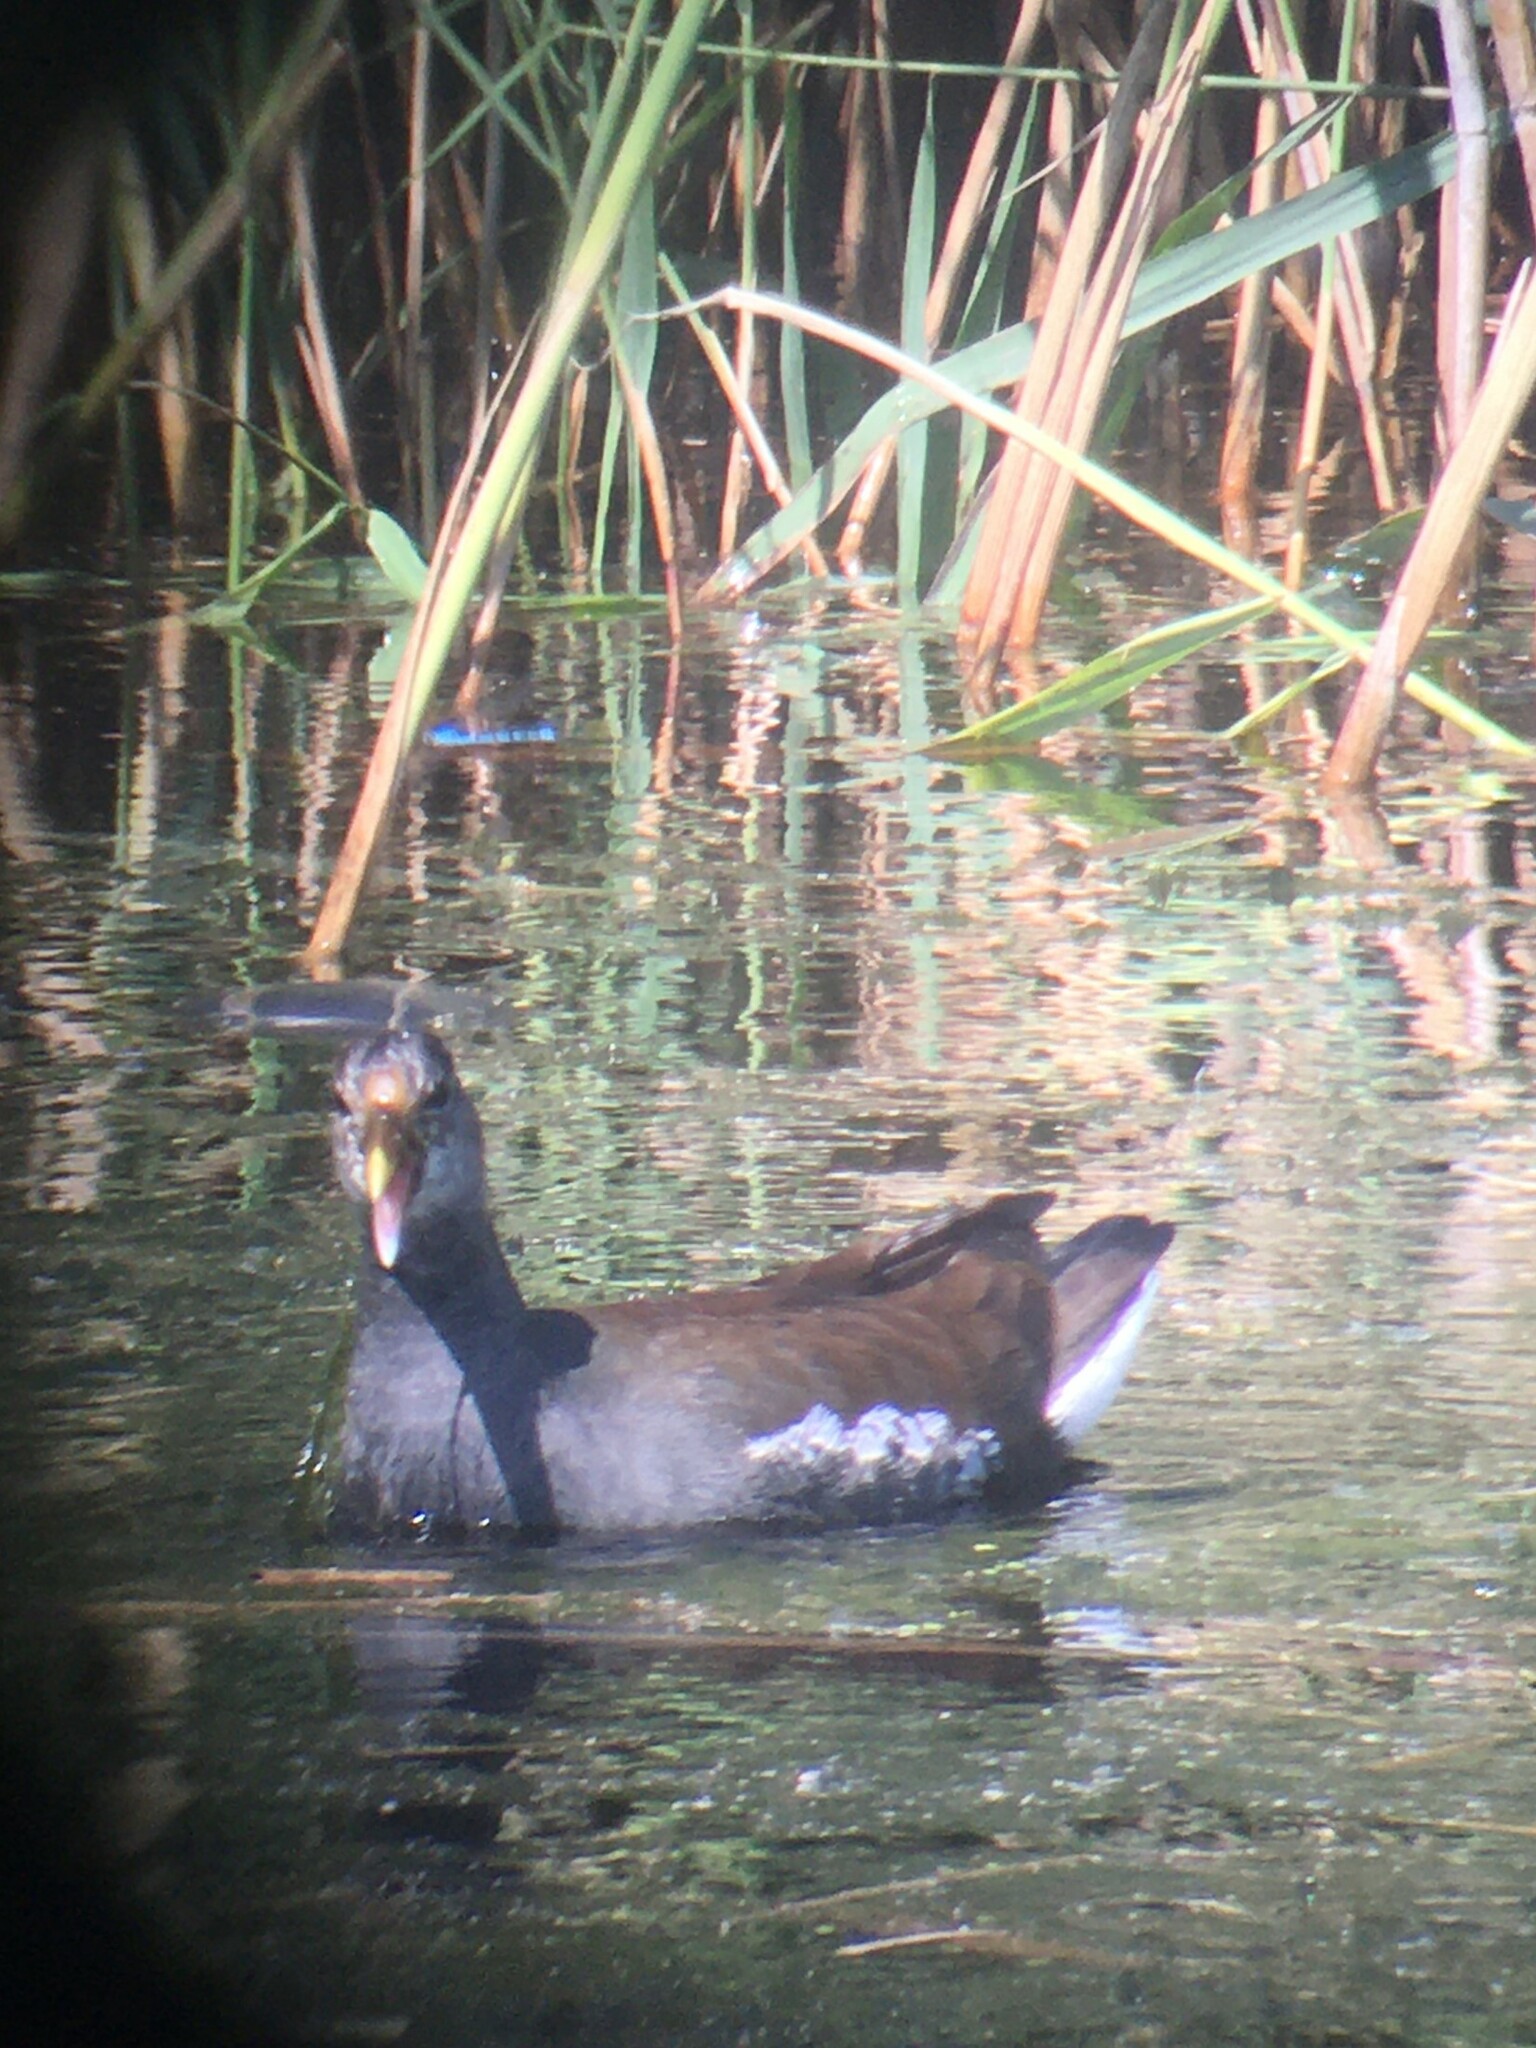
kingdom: Animalia
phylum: Chordata
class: Aves
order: Gruiformes
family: Rallidae
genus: Gallinula
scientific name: Gallinula chloropus
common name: Common moorhen
